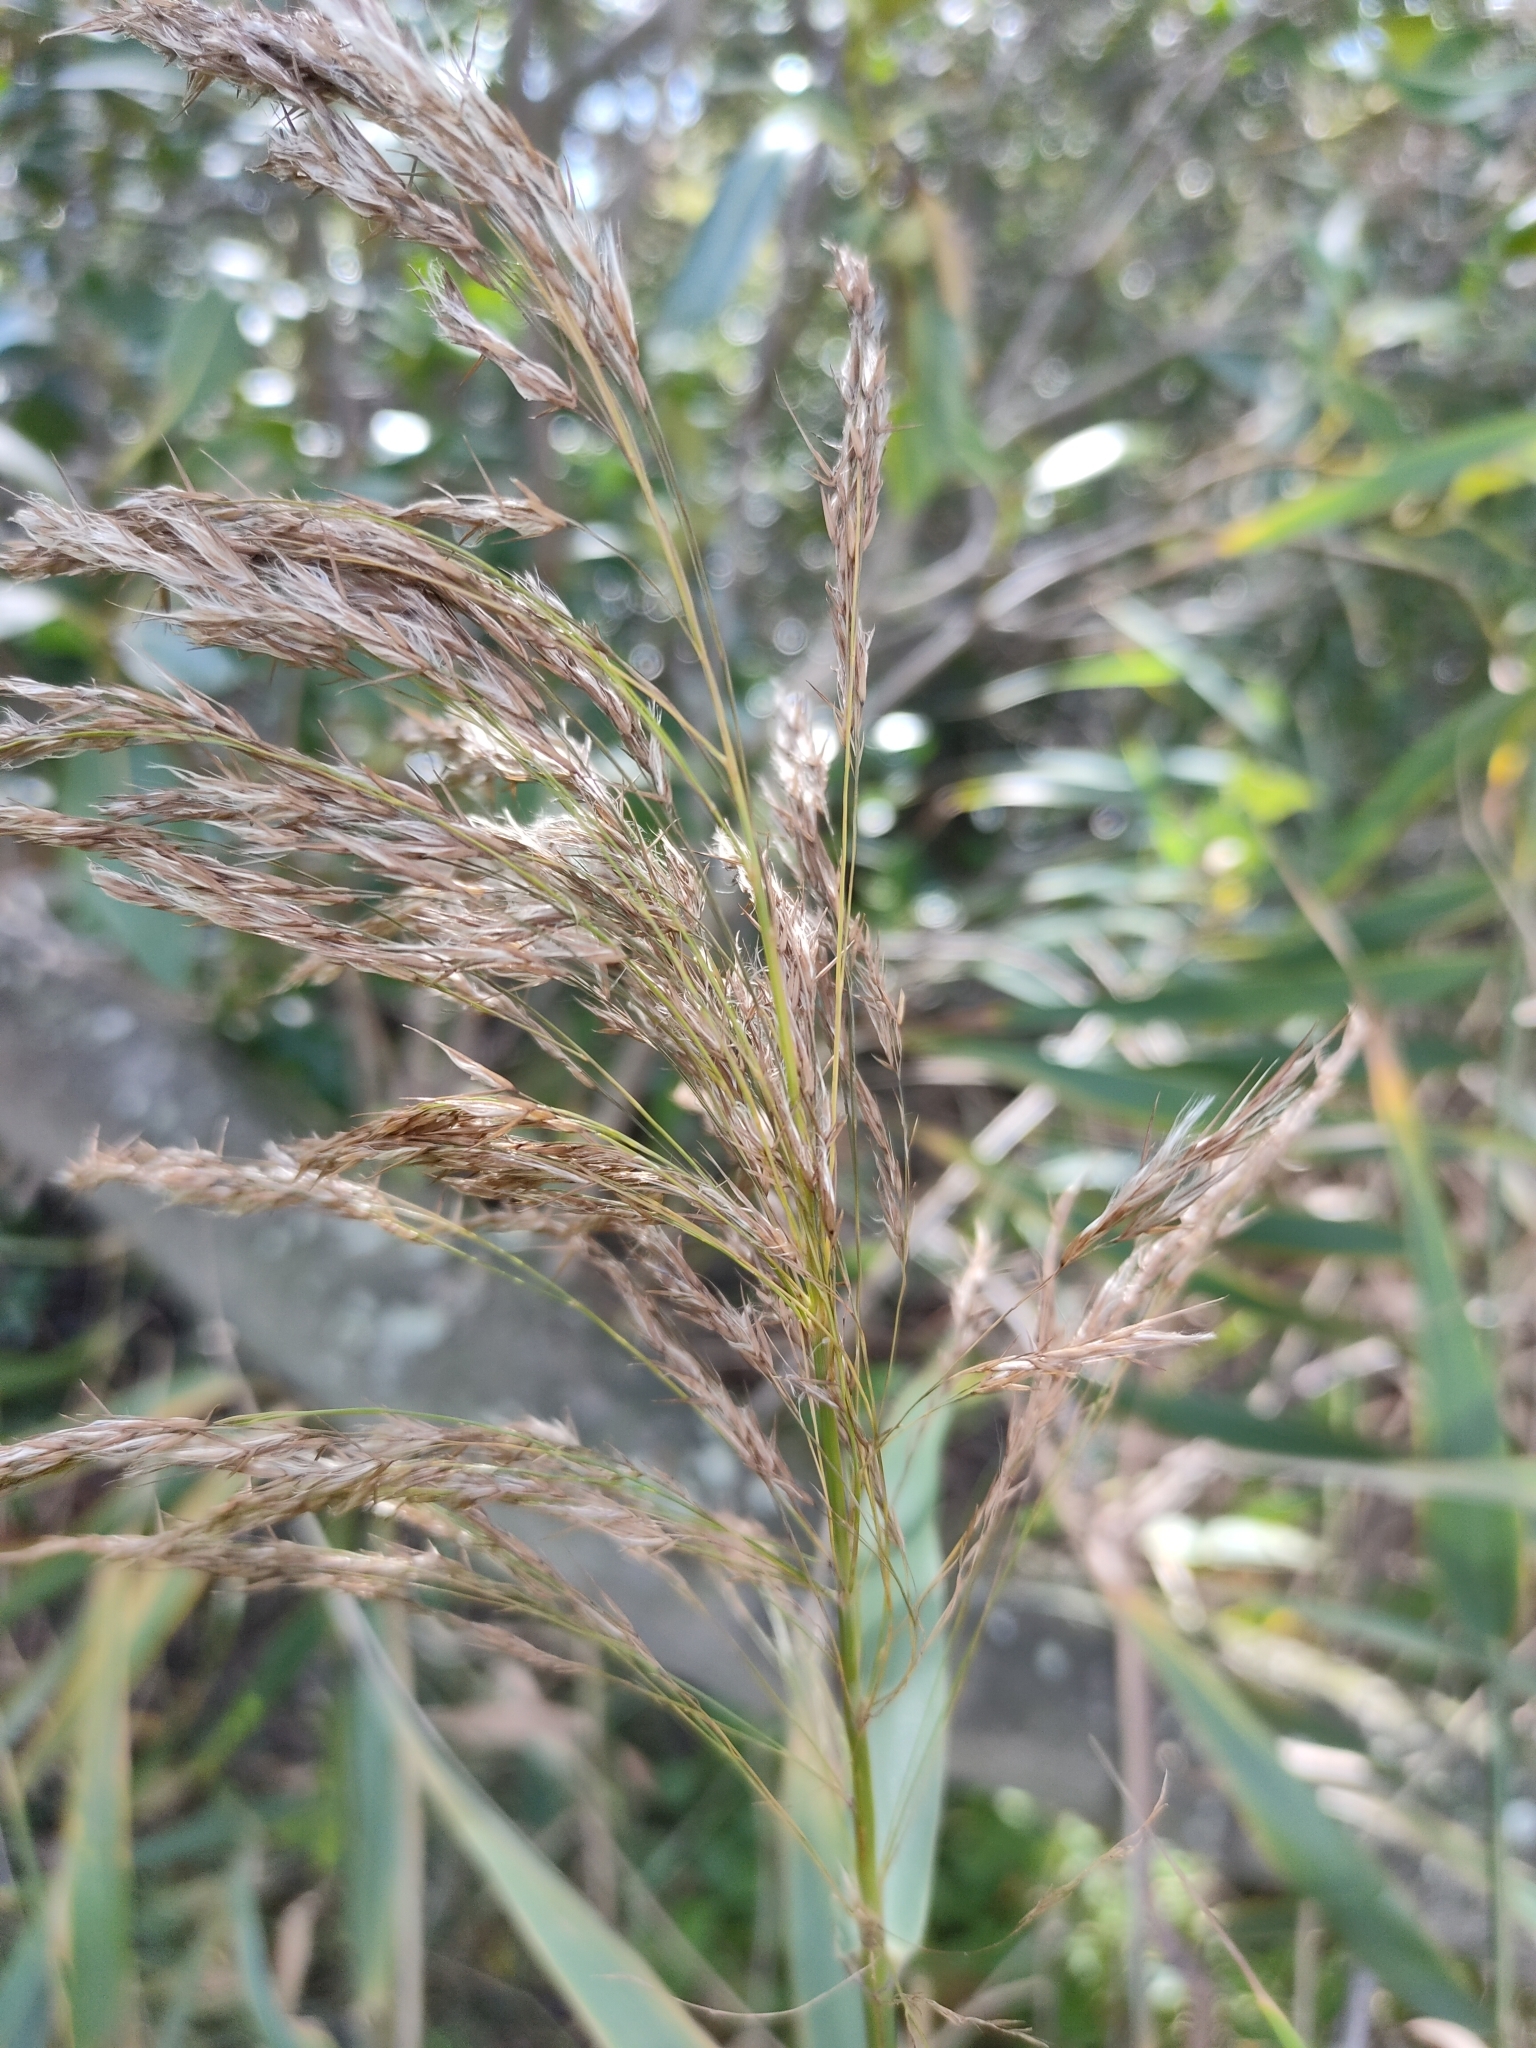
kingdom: Plantae
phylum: Tracheophyta
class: Liliopsida
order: Poales
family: Poaceae
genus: Phragmites
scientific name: Phragmites australis
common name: Common reed
